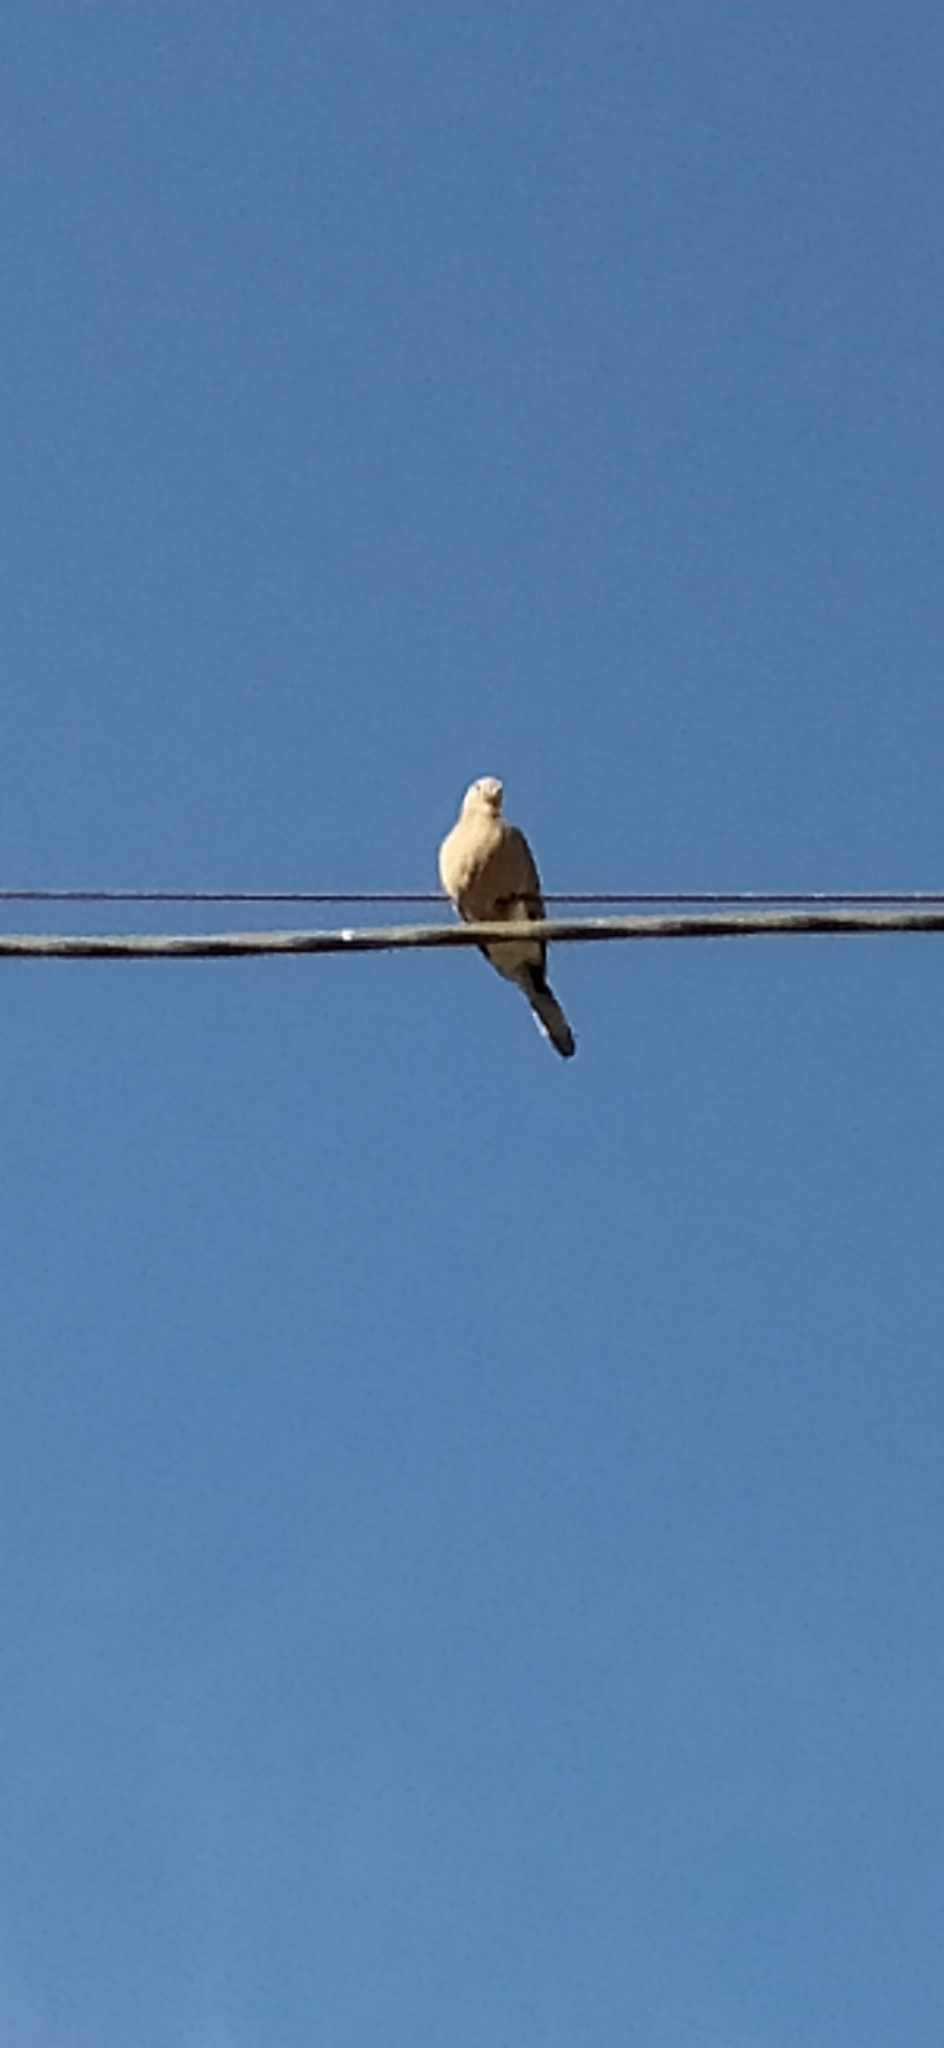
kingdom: Animalia
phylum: Chordata
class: Aves
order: Columbiformes
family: Columbidae
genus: Streptopelia
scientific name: Streptopelia decaocto
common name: Eurasian collared dove
